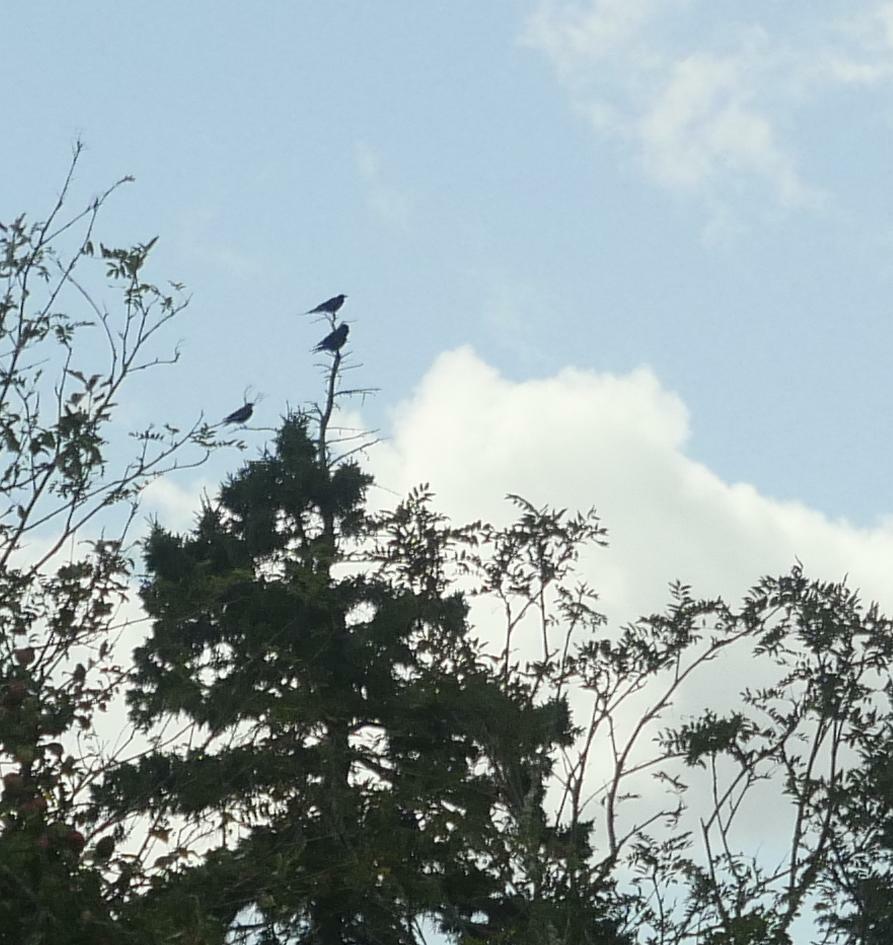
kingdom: Animalia
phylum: Chordata
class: Aves
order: Passeriformes
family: Corvidae
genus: Corvus
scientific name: Corvus brachyrhynchos
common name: American crow
